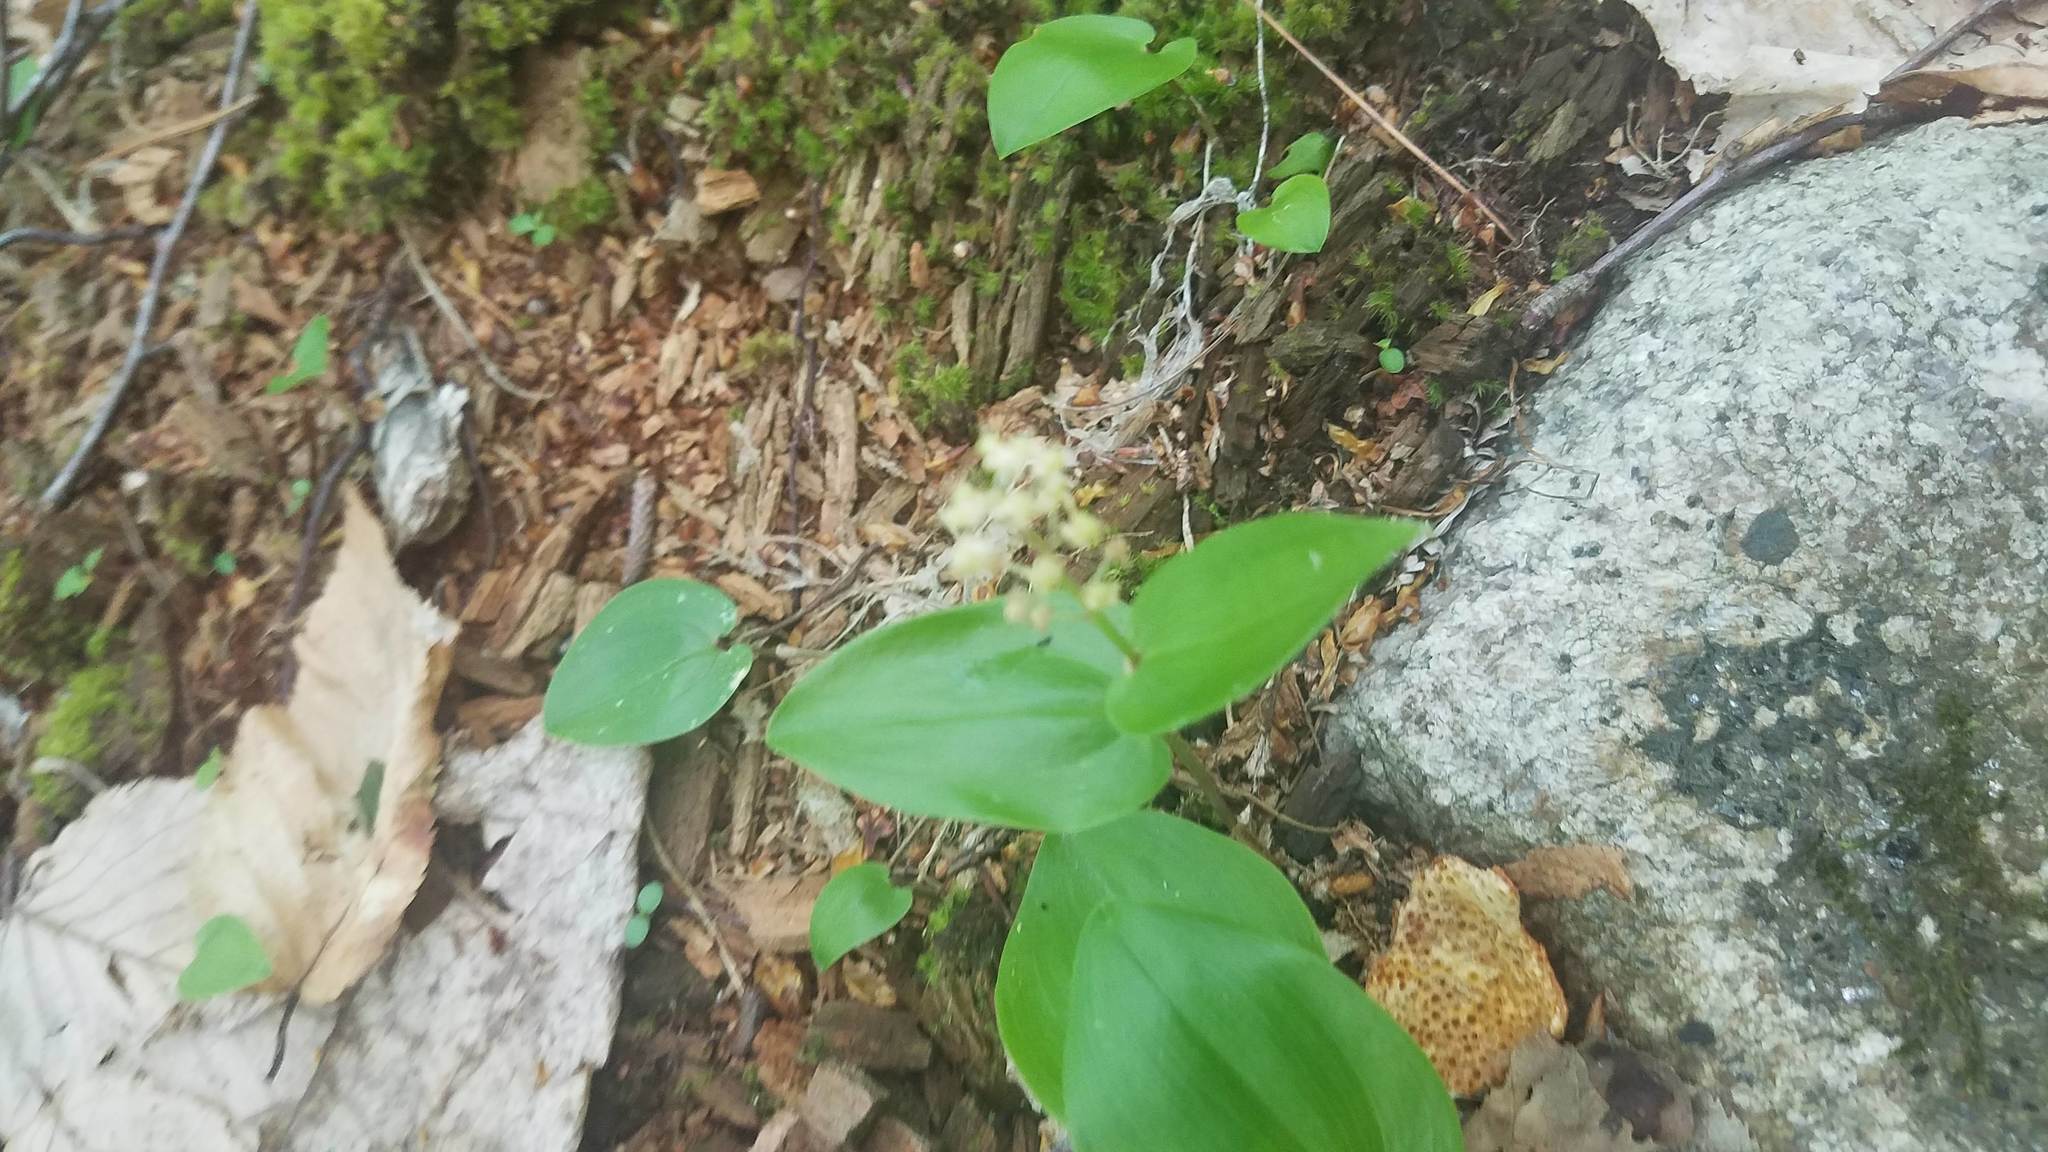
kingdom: Plantae
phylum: Tracheophyta
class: Liliopsida
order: Asparagales
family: Asparagaceae
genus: Maianthemum
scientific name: Maianthemum canadense
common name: False lily-of-the-valley
